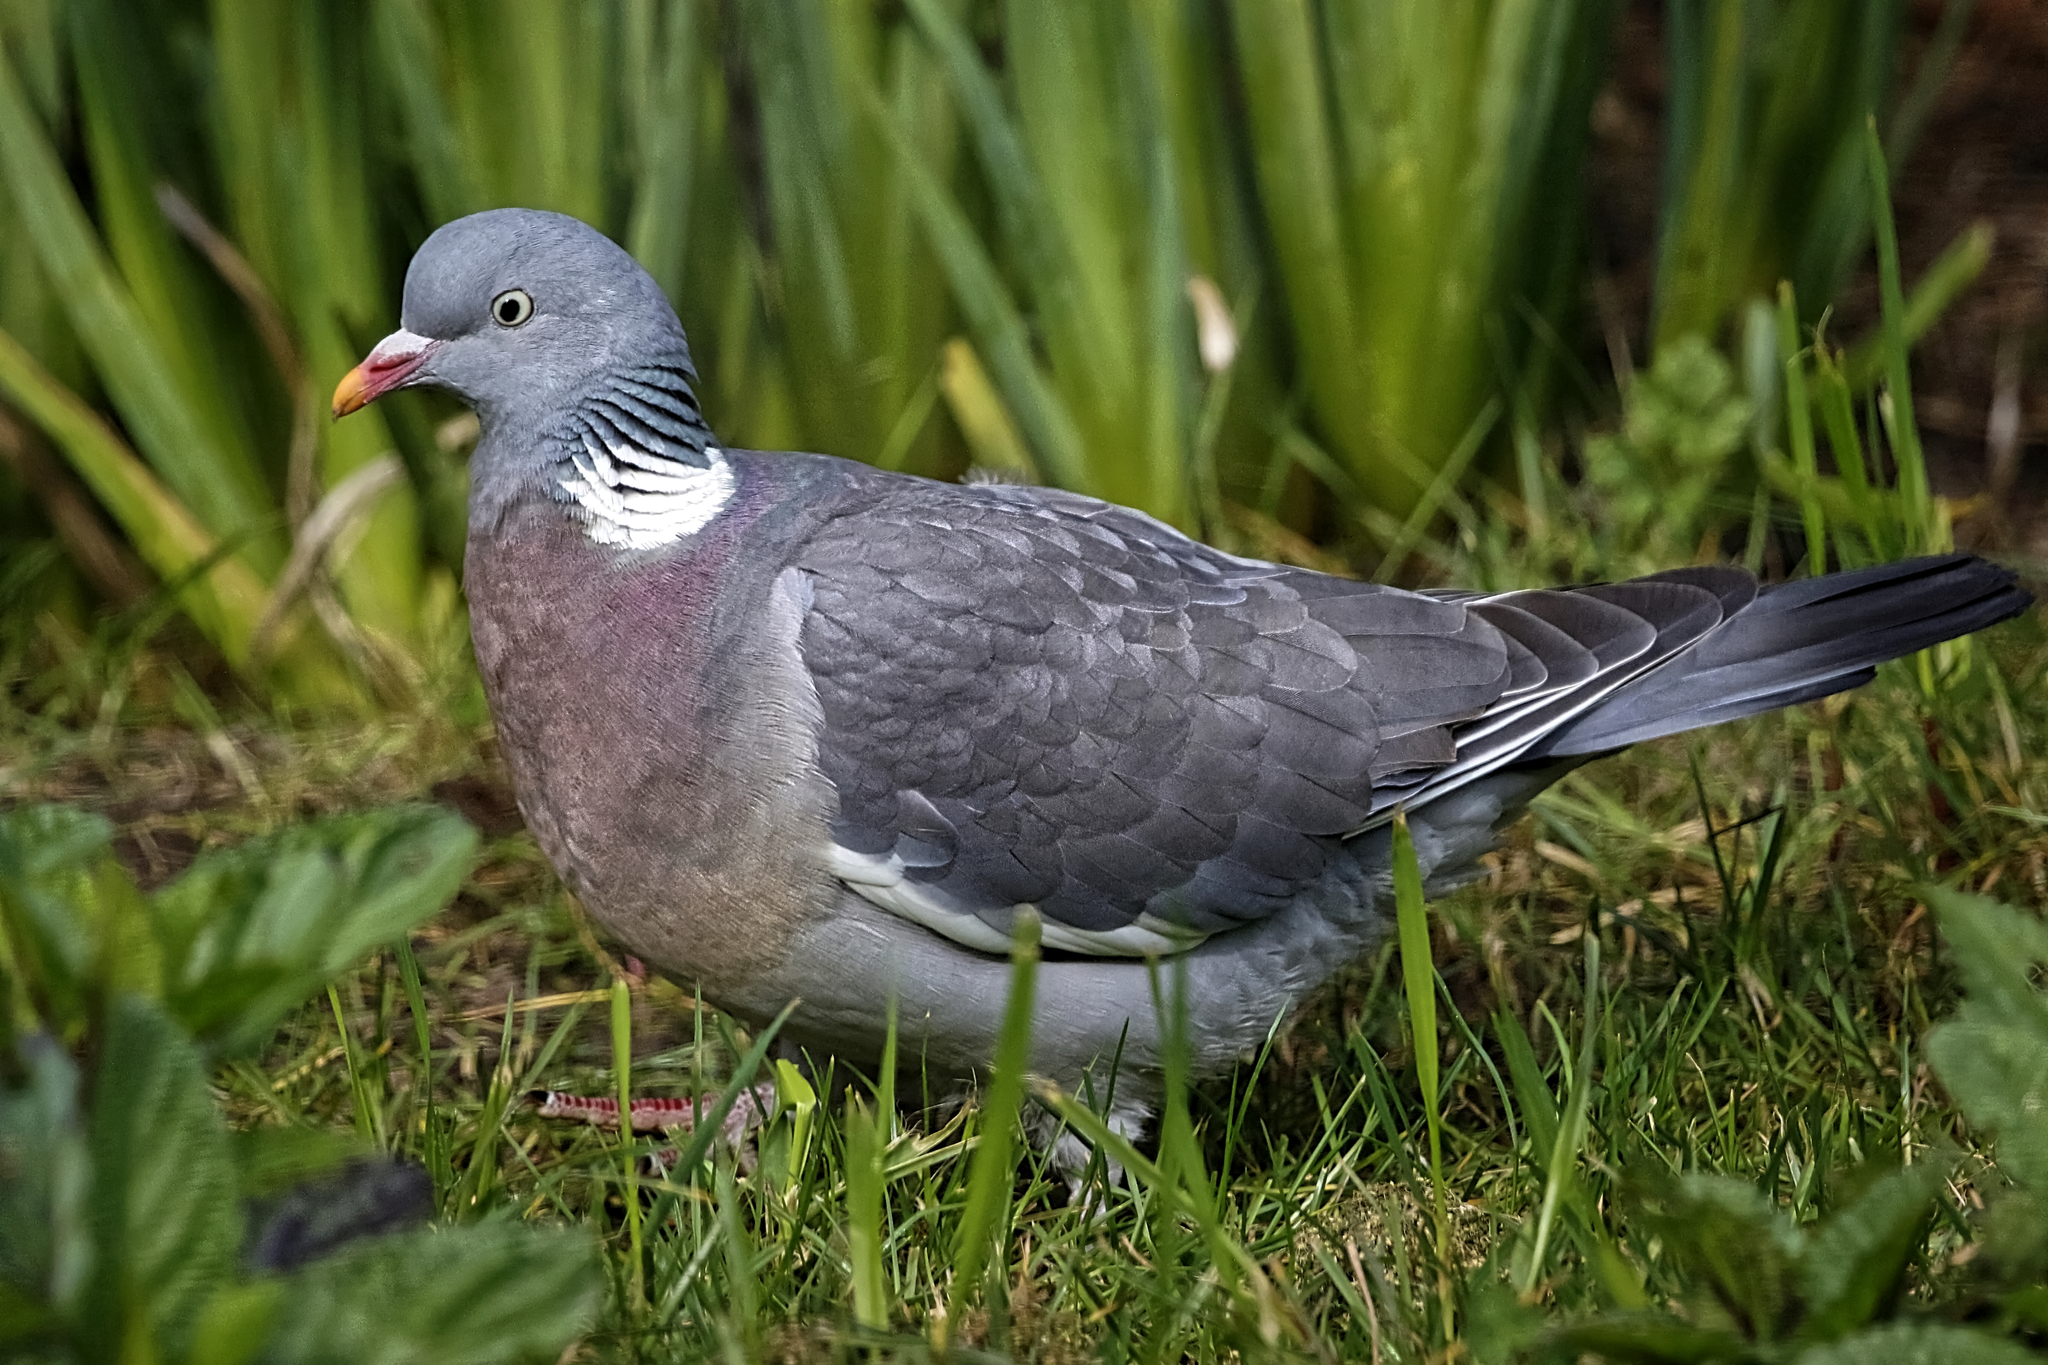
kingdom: Animalia
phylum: Chordata
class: Aves
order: Columbiformes
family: Columbidae
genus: Columba
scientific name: Columba palumbus
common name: Common wood pigeon
